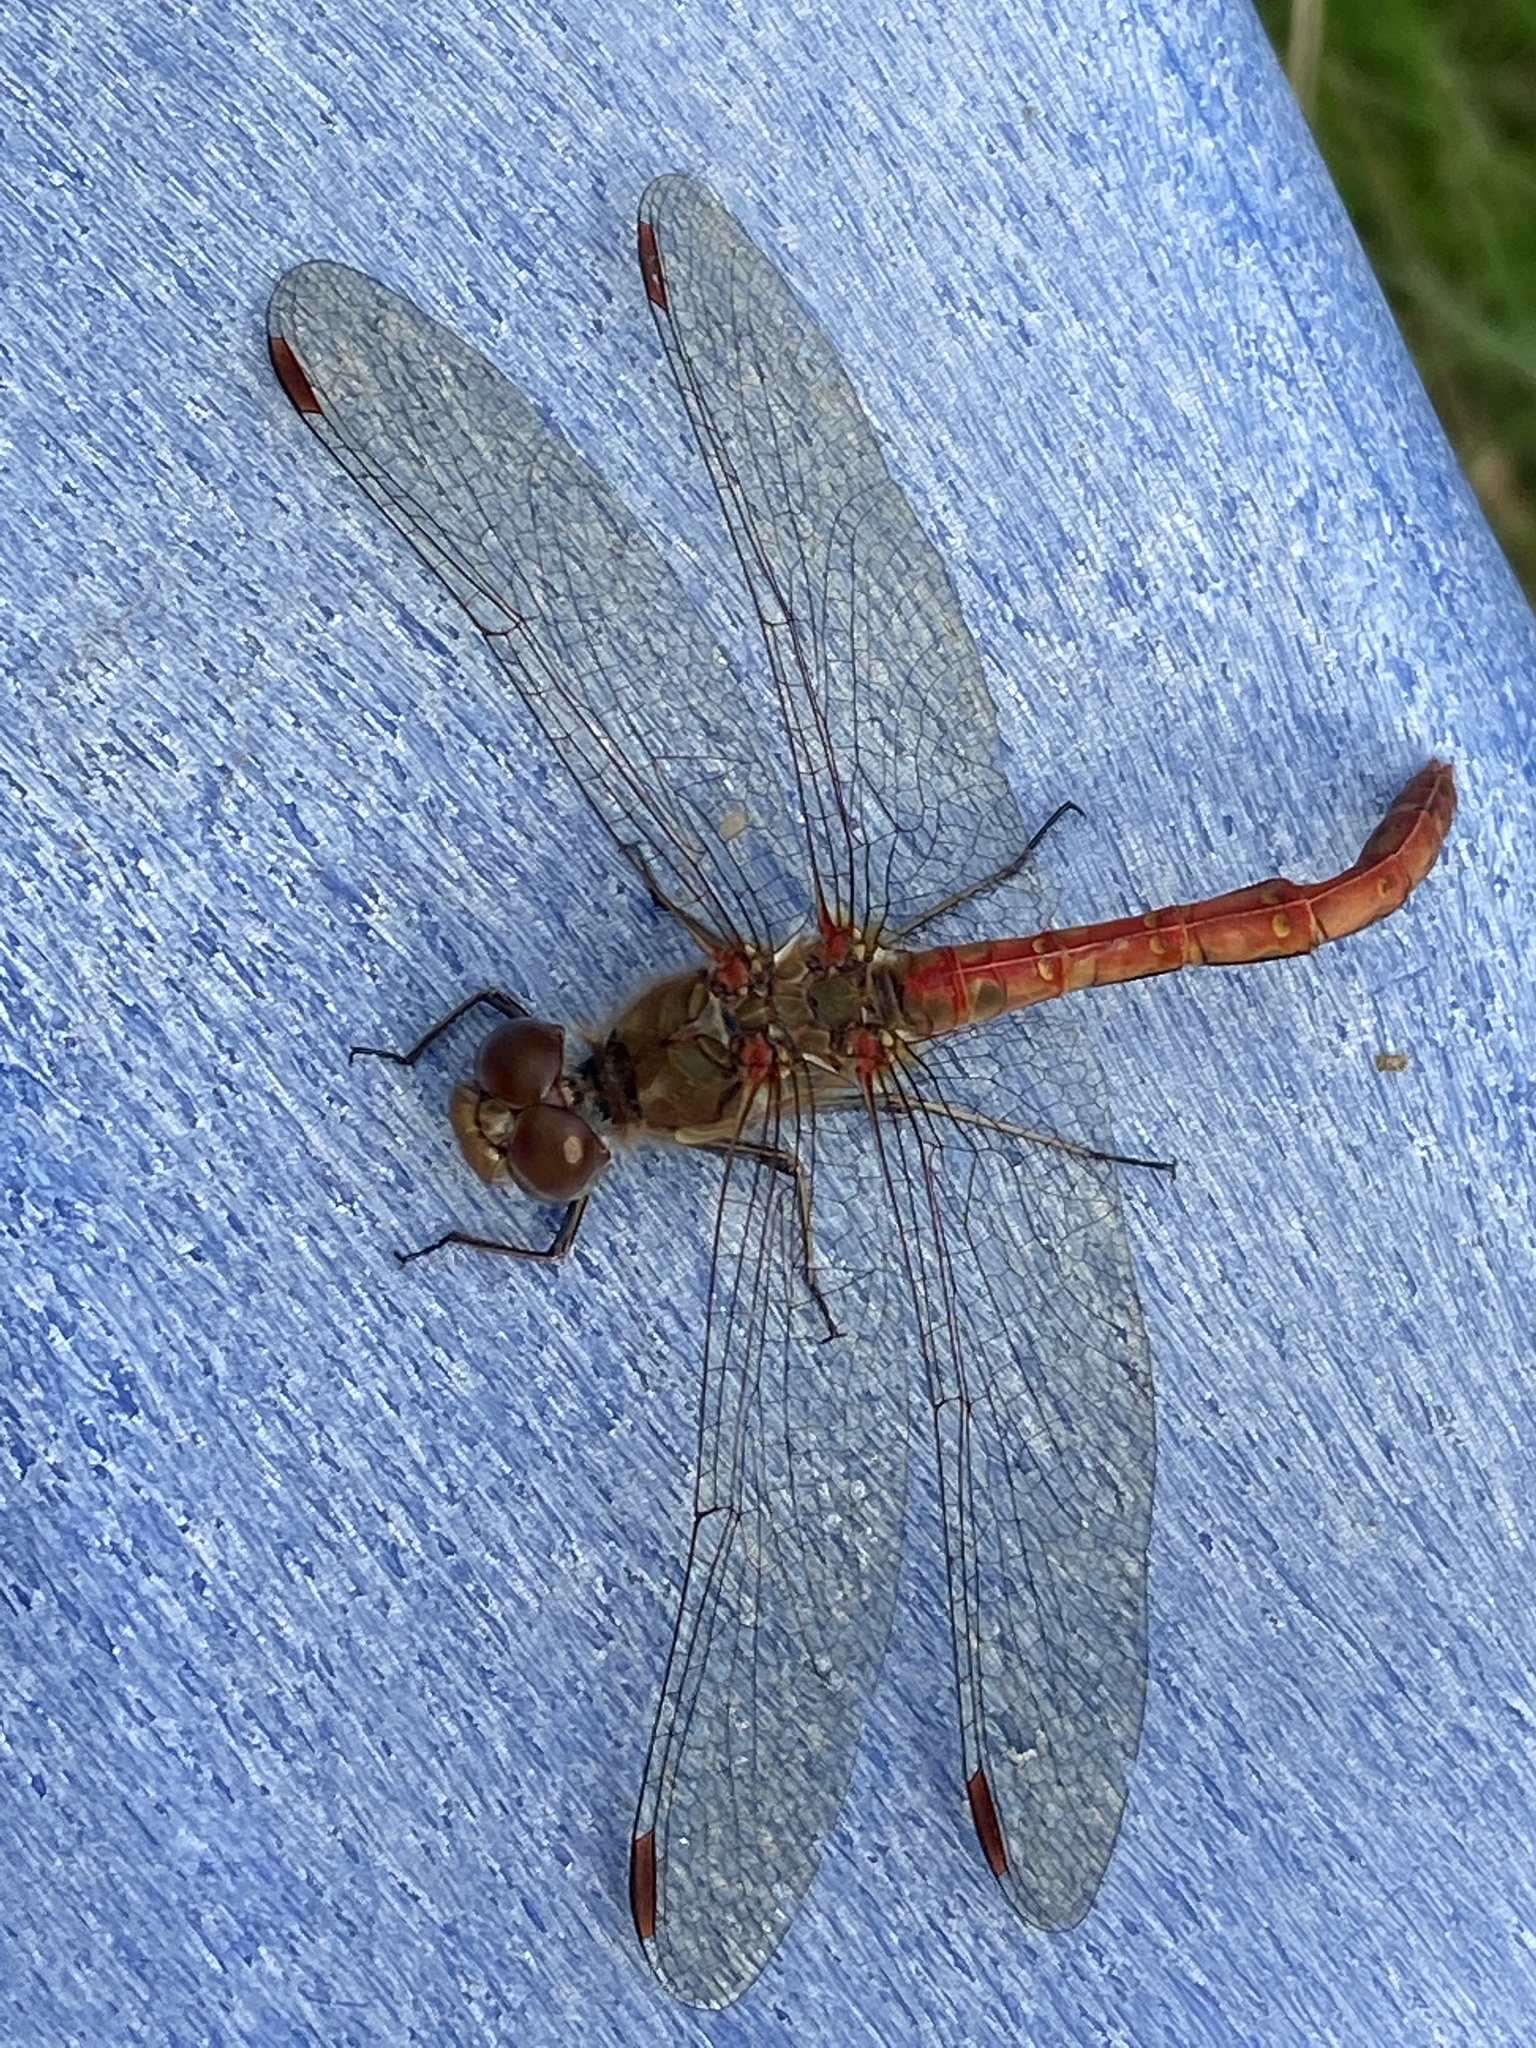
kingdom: Animalia
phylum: Arthropoda
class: Insecta
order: Odonata
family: Libellulidae
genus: Sympetrum
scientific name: Sympetrum striolatum
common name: Common darter
